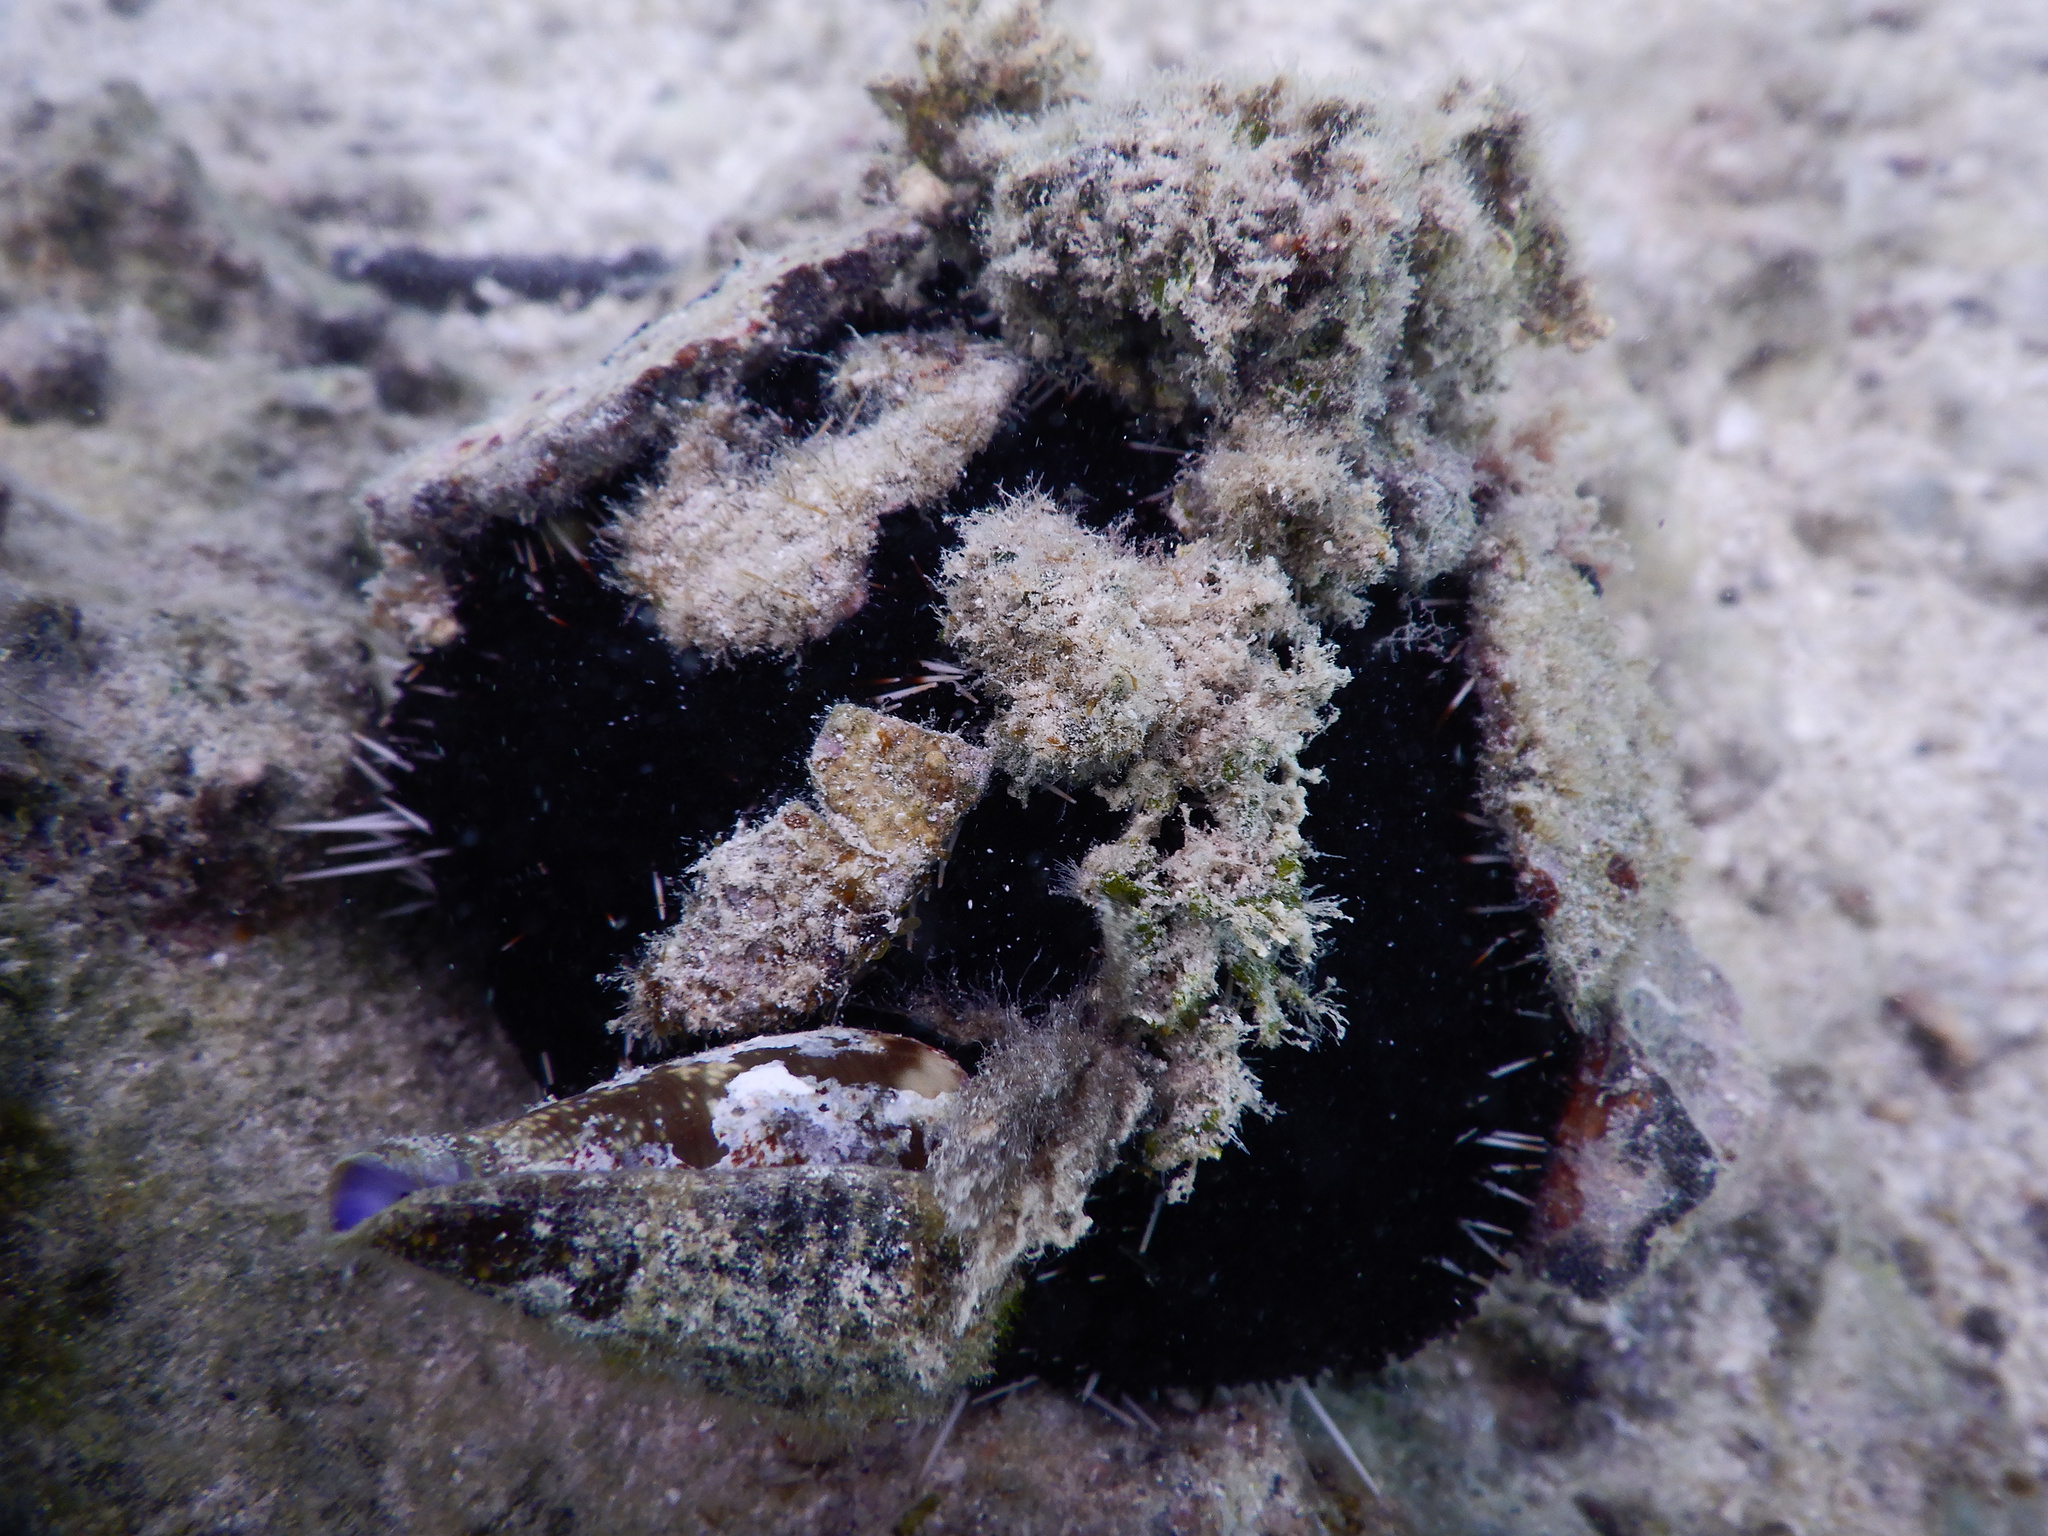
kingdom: Animalia
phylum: Echinodermata
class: Echinoidea
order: Camarodonta
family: Toxopneustidae
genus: Tripneustes
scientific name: Tripneustes gratilla
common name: Bischofsmützenseeigel
